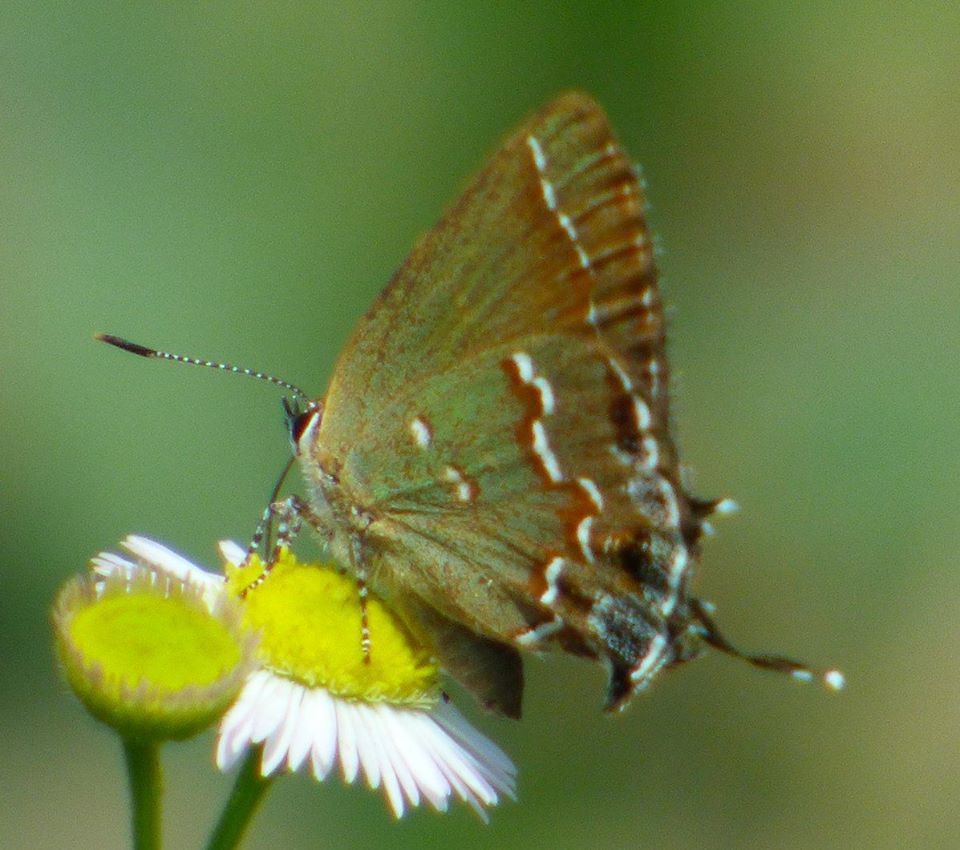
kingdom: Animalia
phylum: Arthropoda
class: Insecta
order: Lepidoptera
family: Lycaenidae
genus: Mitoura
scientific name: Mitoura gryneus
